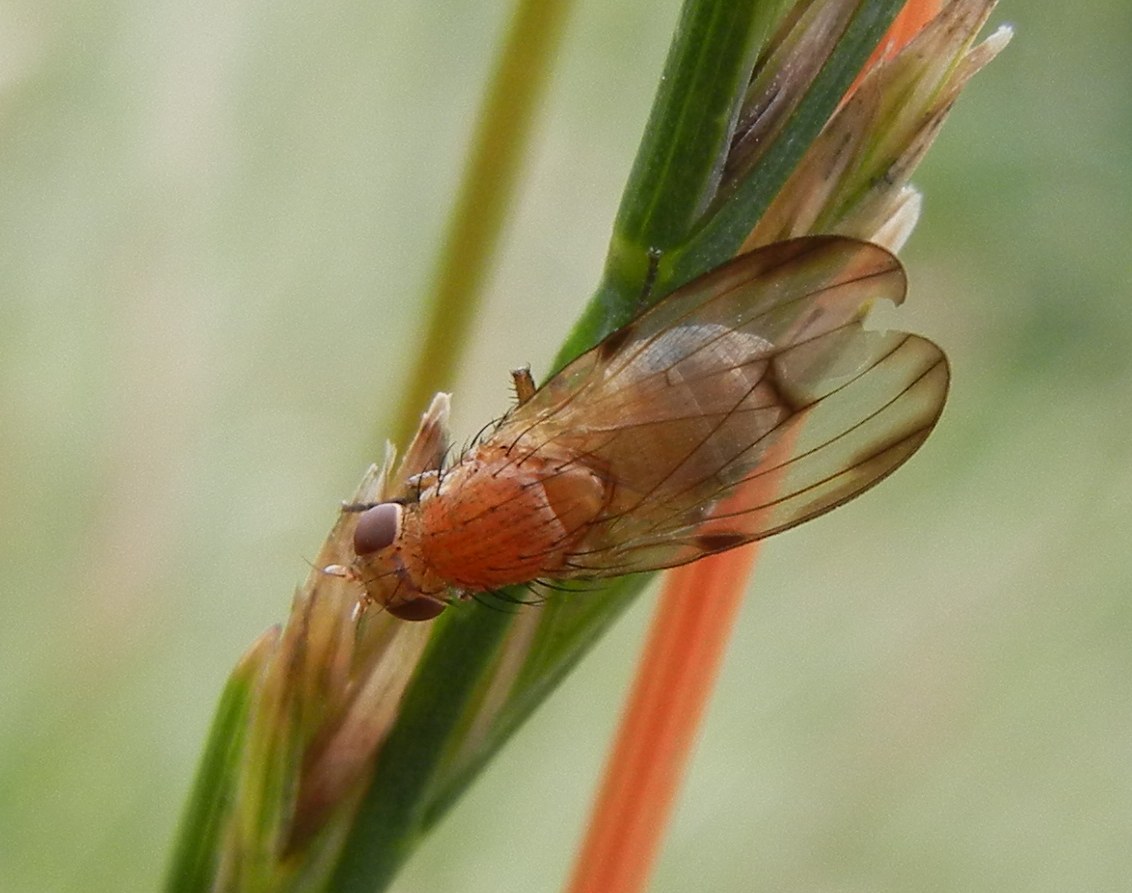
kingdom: Animalia
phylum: Arthropoda
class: Insecta
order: Diptera
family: Lauxaniidae
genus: Minettia
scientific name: Minettia inusta
